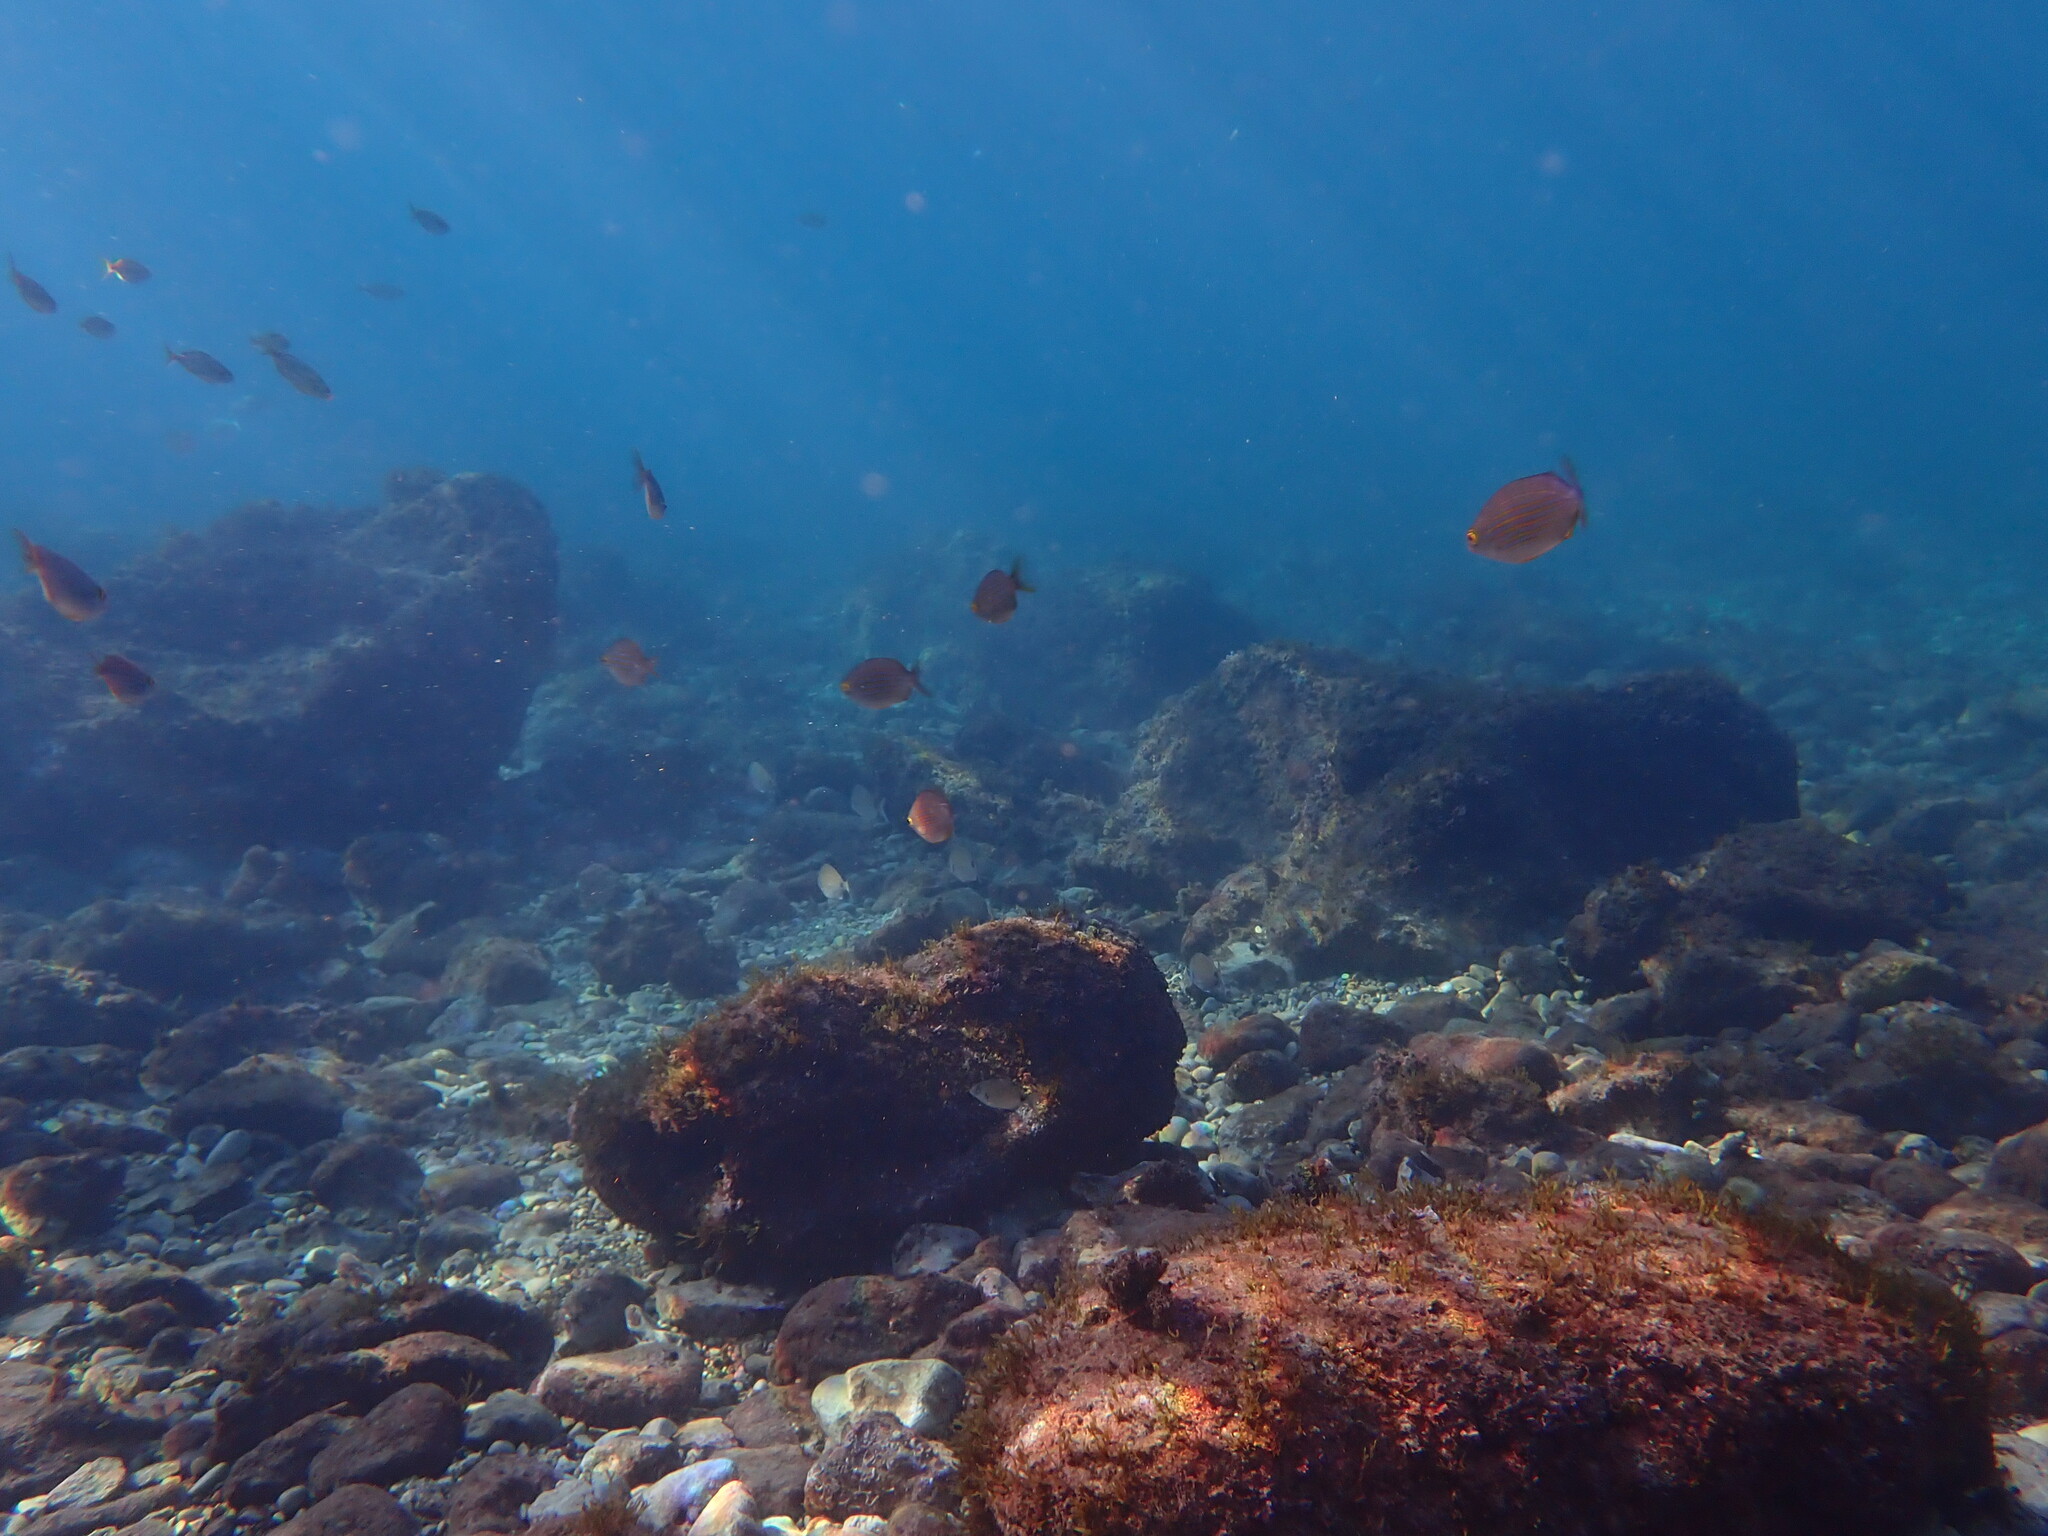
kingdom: Animalia
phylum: Chordata
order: Perciformes
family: Sparidae
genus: Sarpa
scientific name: Sarpa salpa
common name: Salema
